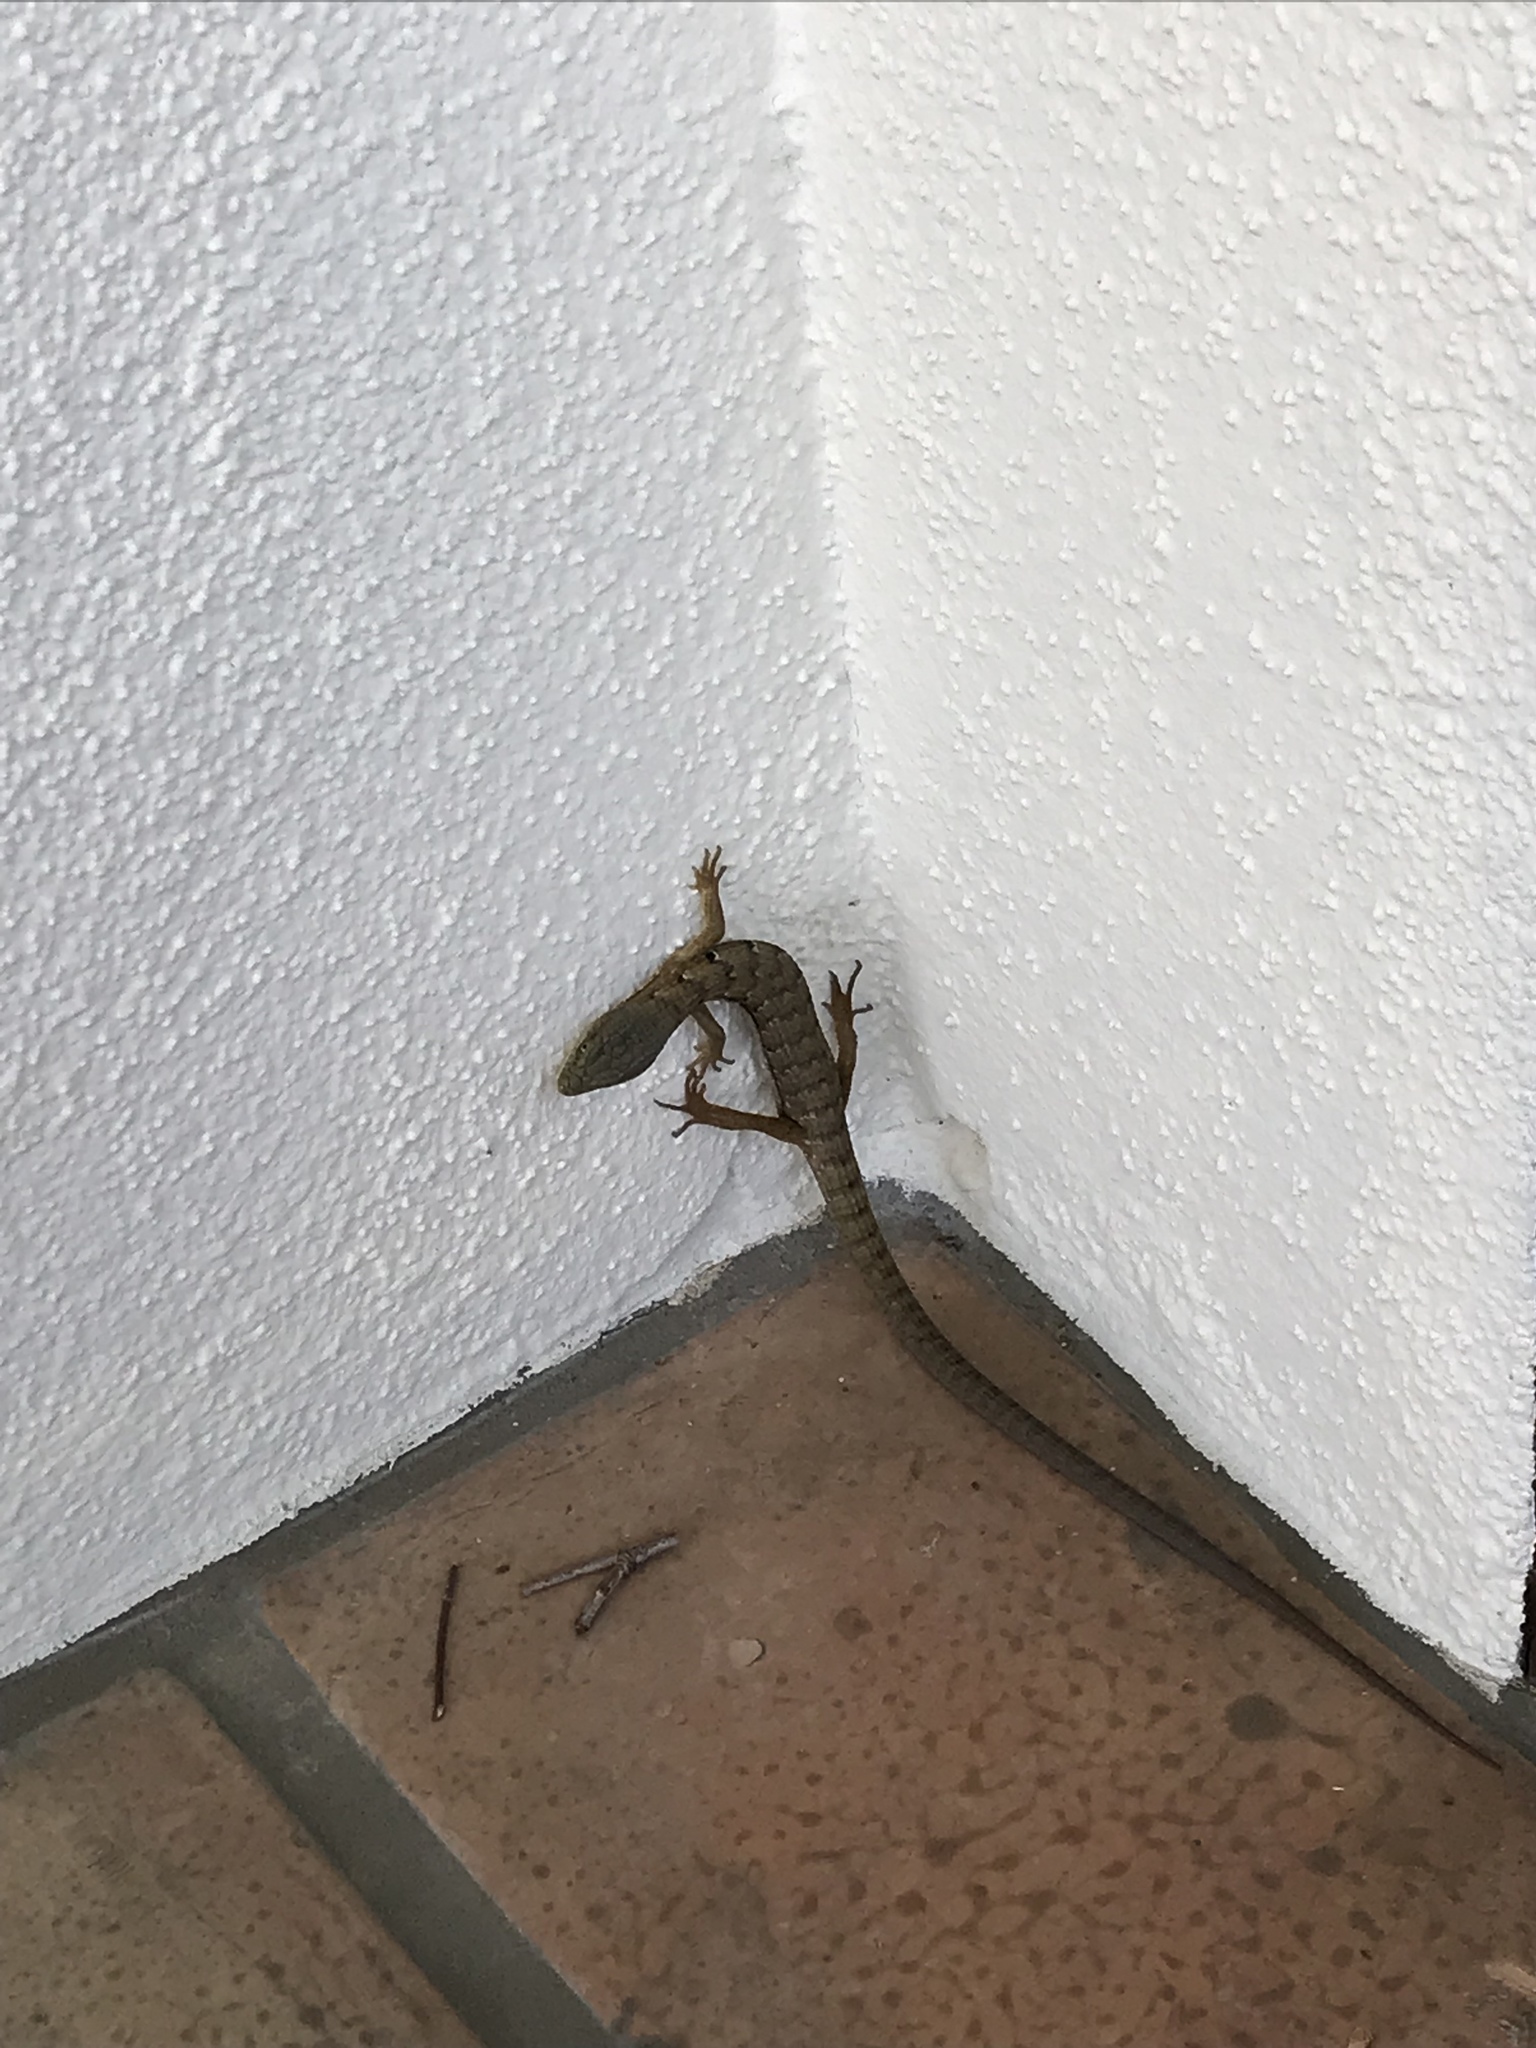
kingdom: Animalia
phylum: Chordata
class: Squamata
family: Anguidae
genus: Elgaria
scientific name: Elgaria multicarinata
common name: Southern alligator lizard
